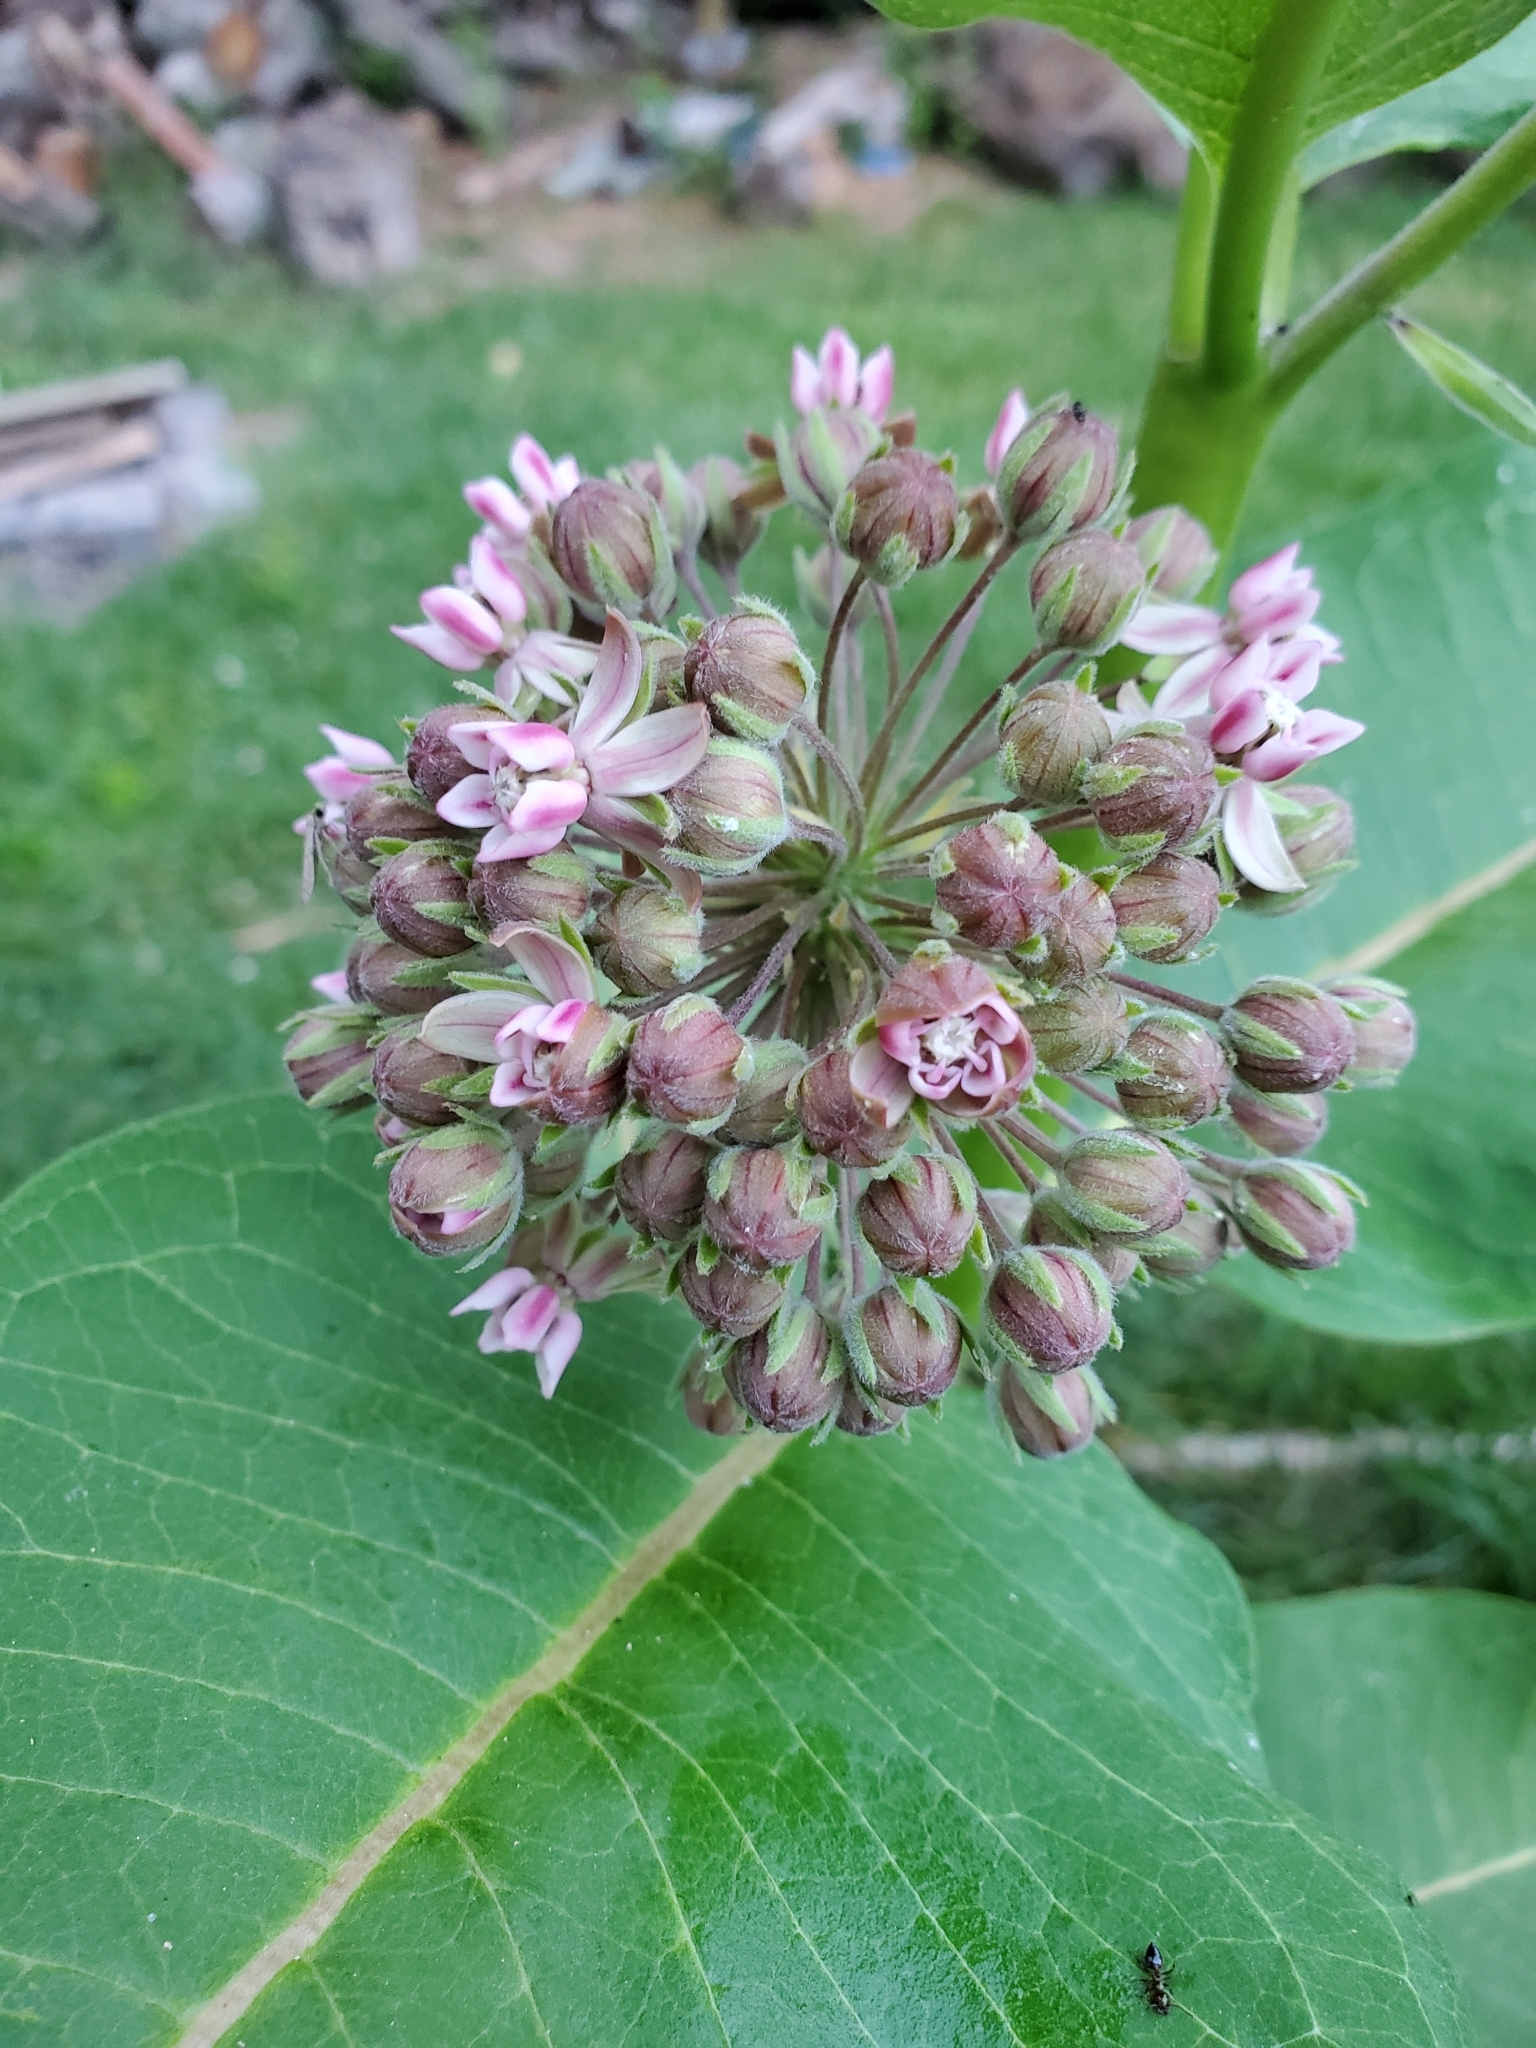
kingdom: Plantae
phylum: Tracheophyta
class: Magnoliopsida
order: Gentianales
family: Apocynaceae
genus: Asclepias
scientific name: Asclepias syriaca
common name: Common milkweed
